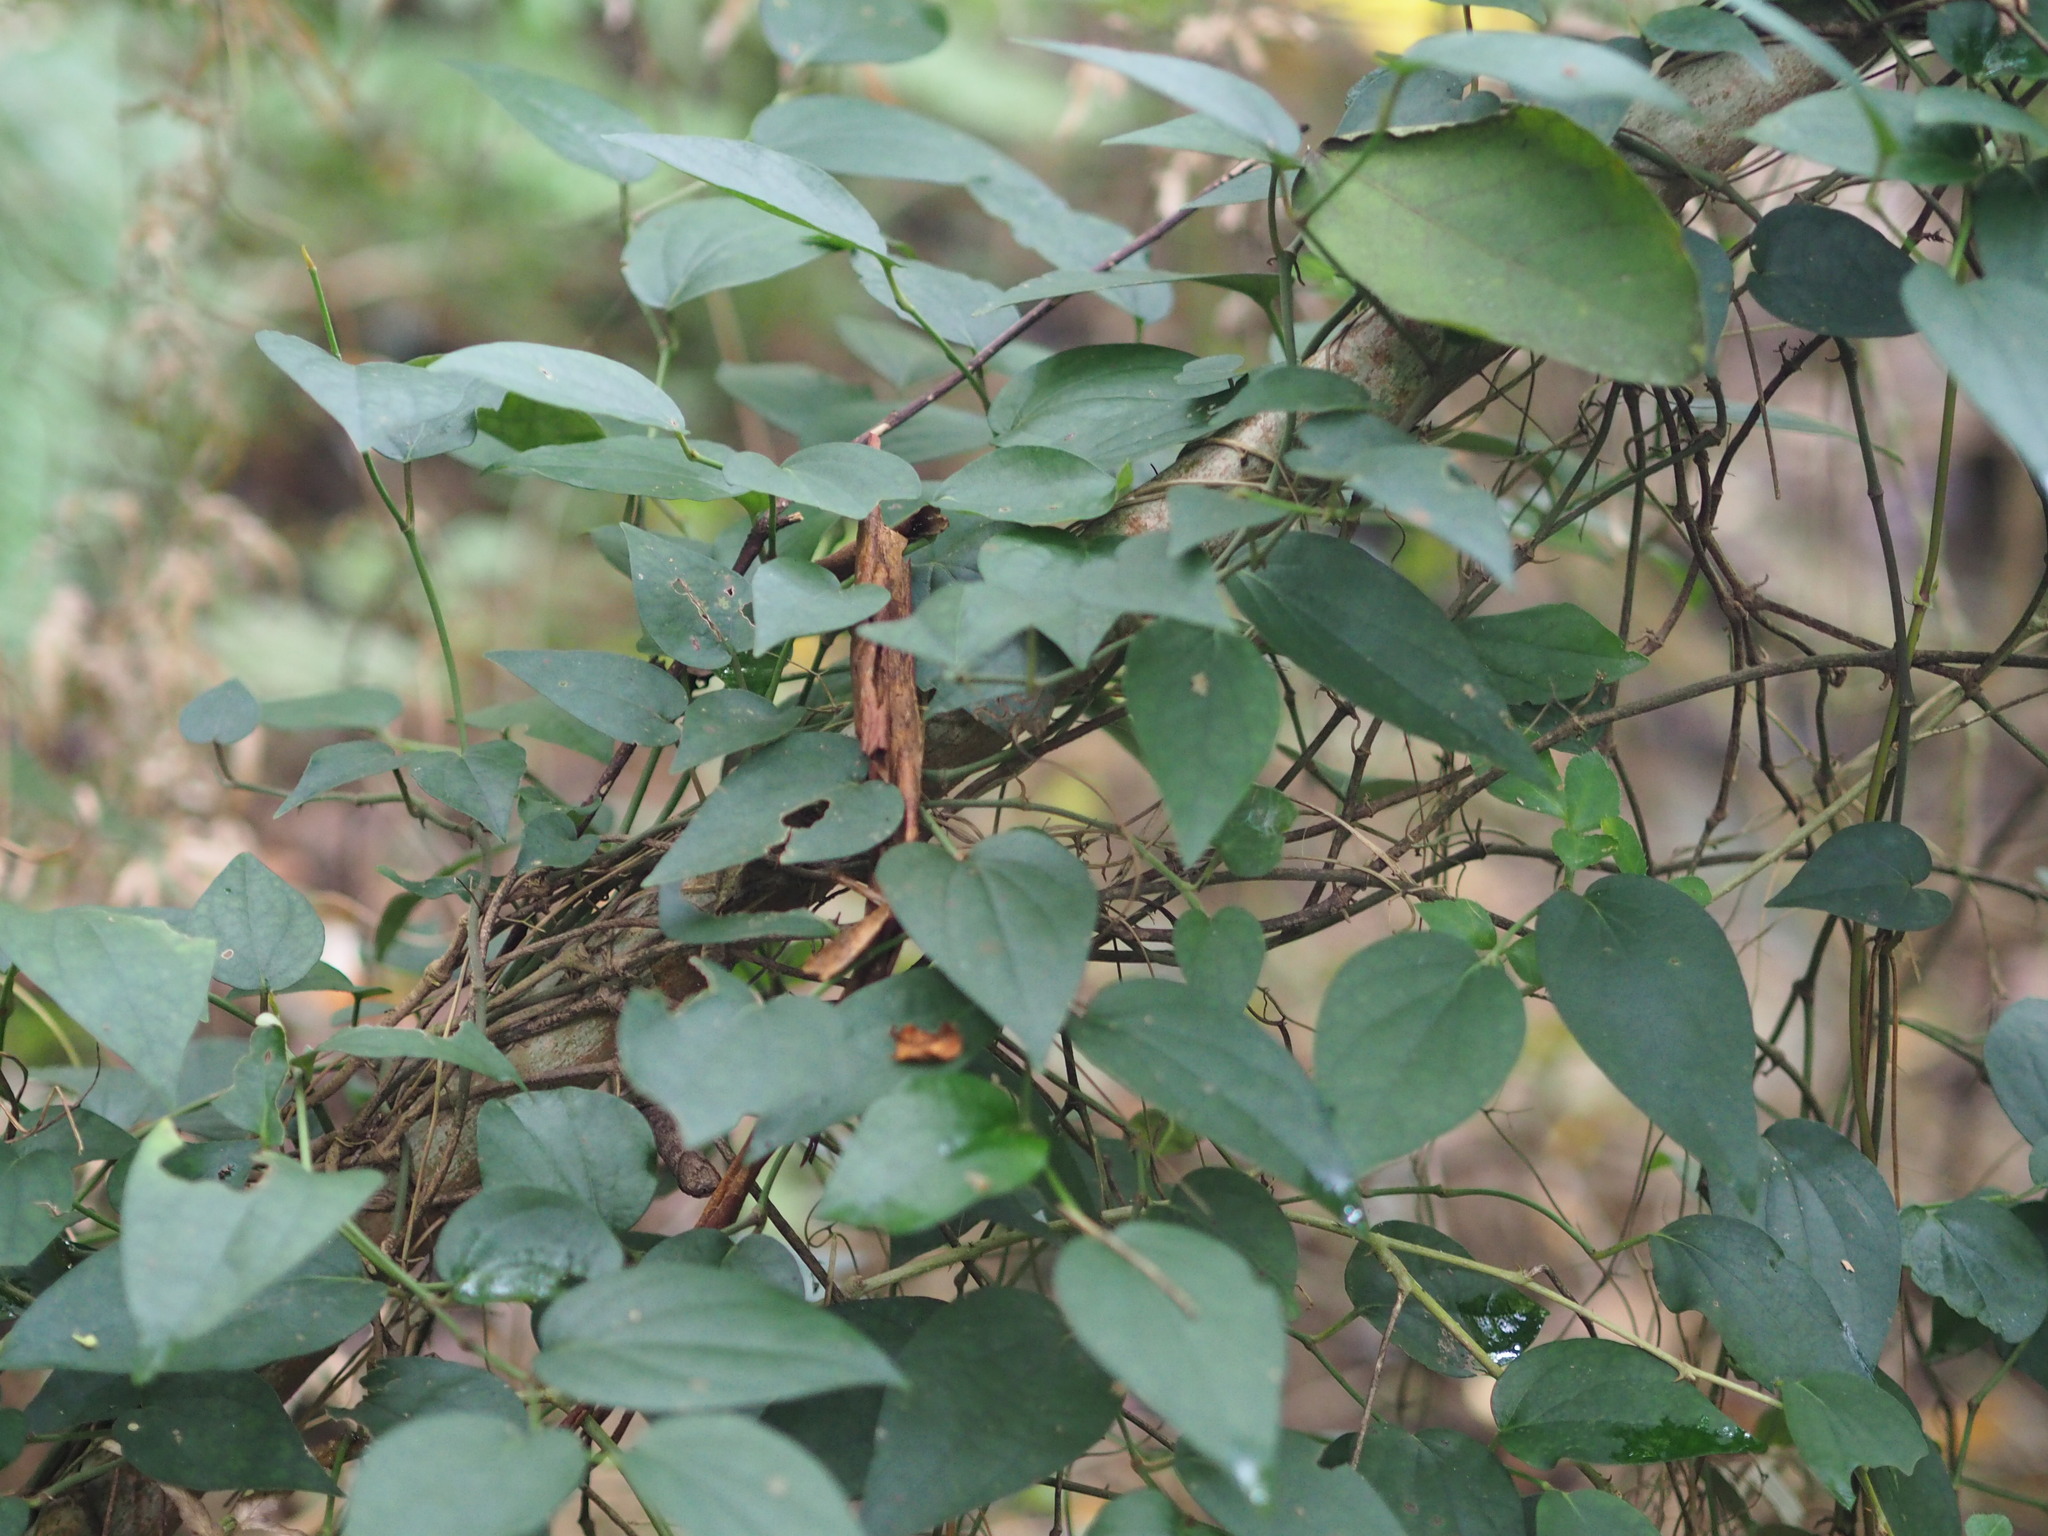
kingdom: Plantae
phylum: Tracheophyta
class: Magnoliopsida
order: Piperales
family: Piperaceae
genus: Piper
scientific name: Piper kadsura
